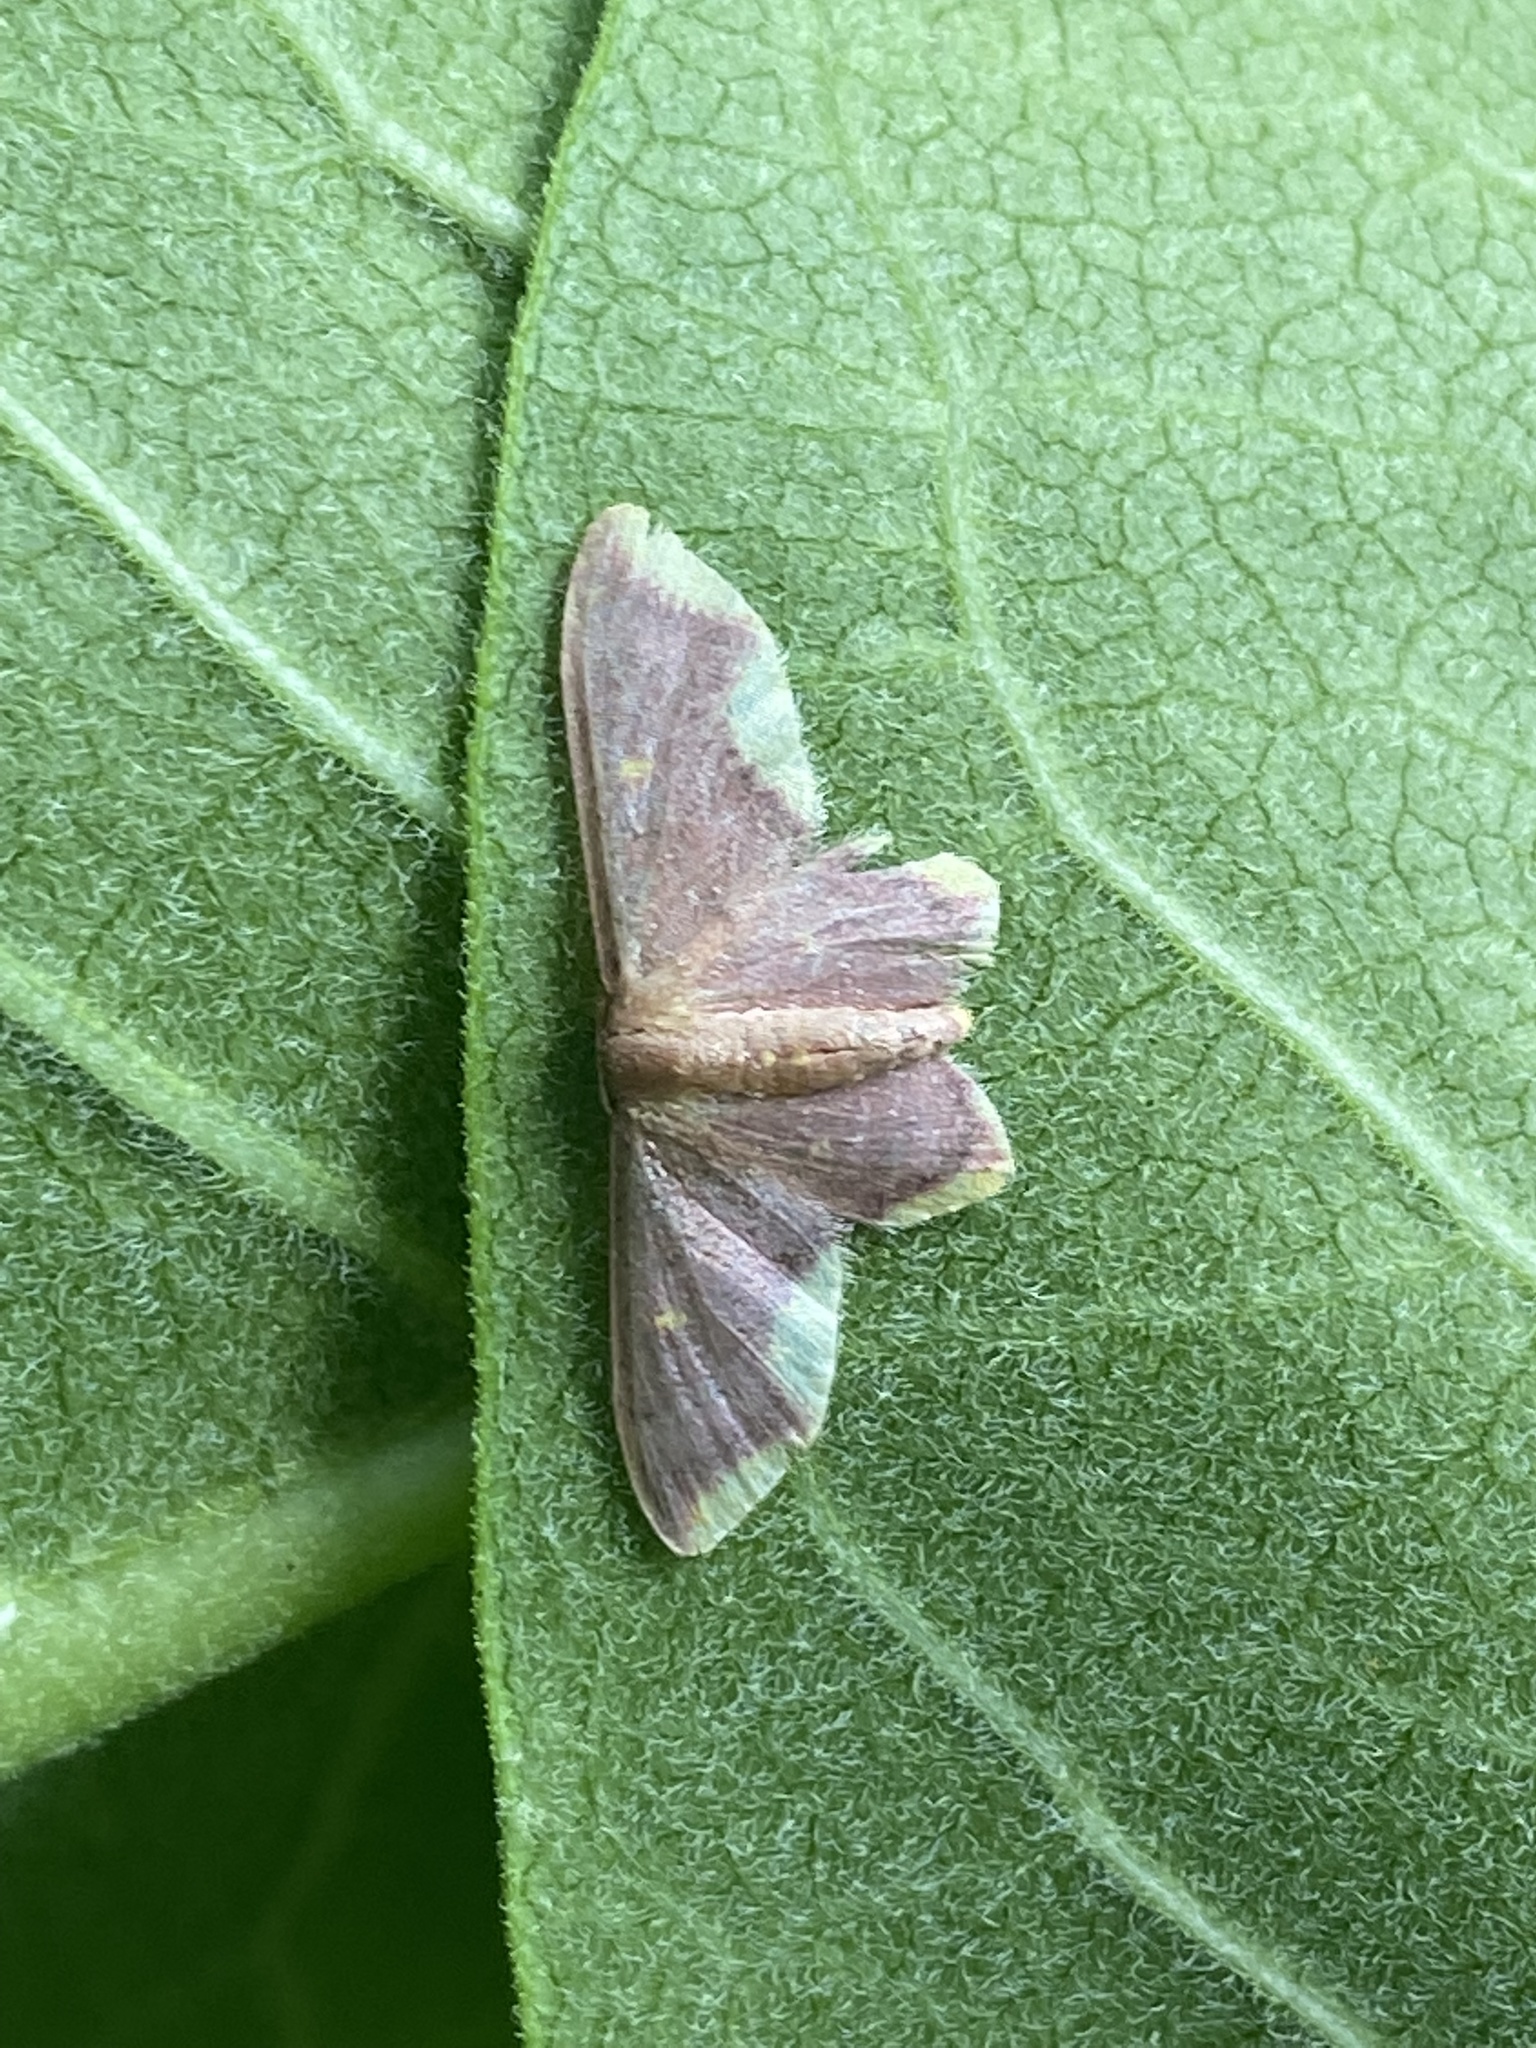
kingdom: Animalia
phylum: Arthropoda
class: Insecta
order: Lepidoptera
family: Geometridae
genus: Lophosis
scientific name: Lophosis labeculata
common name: Stained lophosis moth
